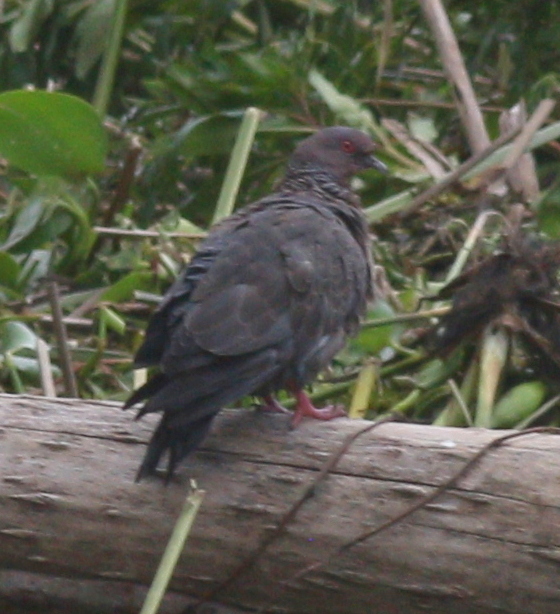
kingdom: Animalia
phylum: Chordata
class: Aves
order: Columbiformes
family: Columbidae
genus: Patagioenas
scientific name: Patagioenas picazuro
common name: Picazuro pigeon
